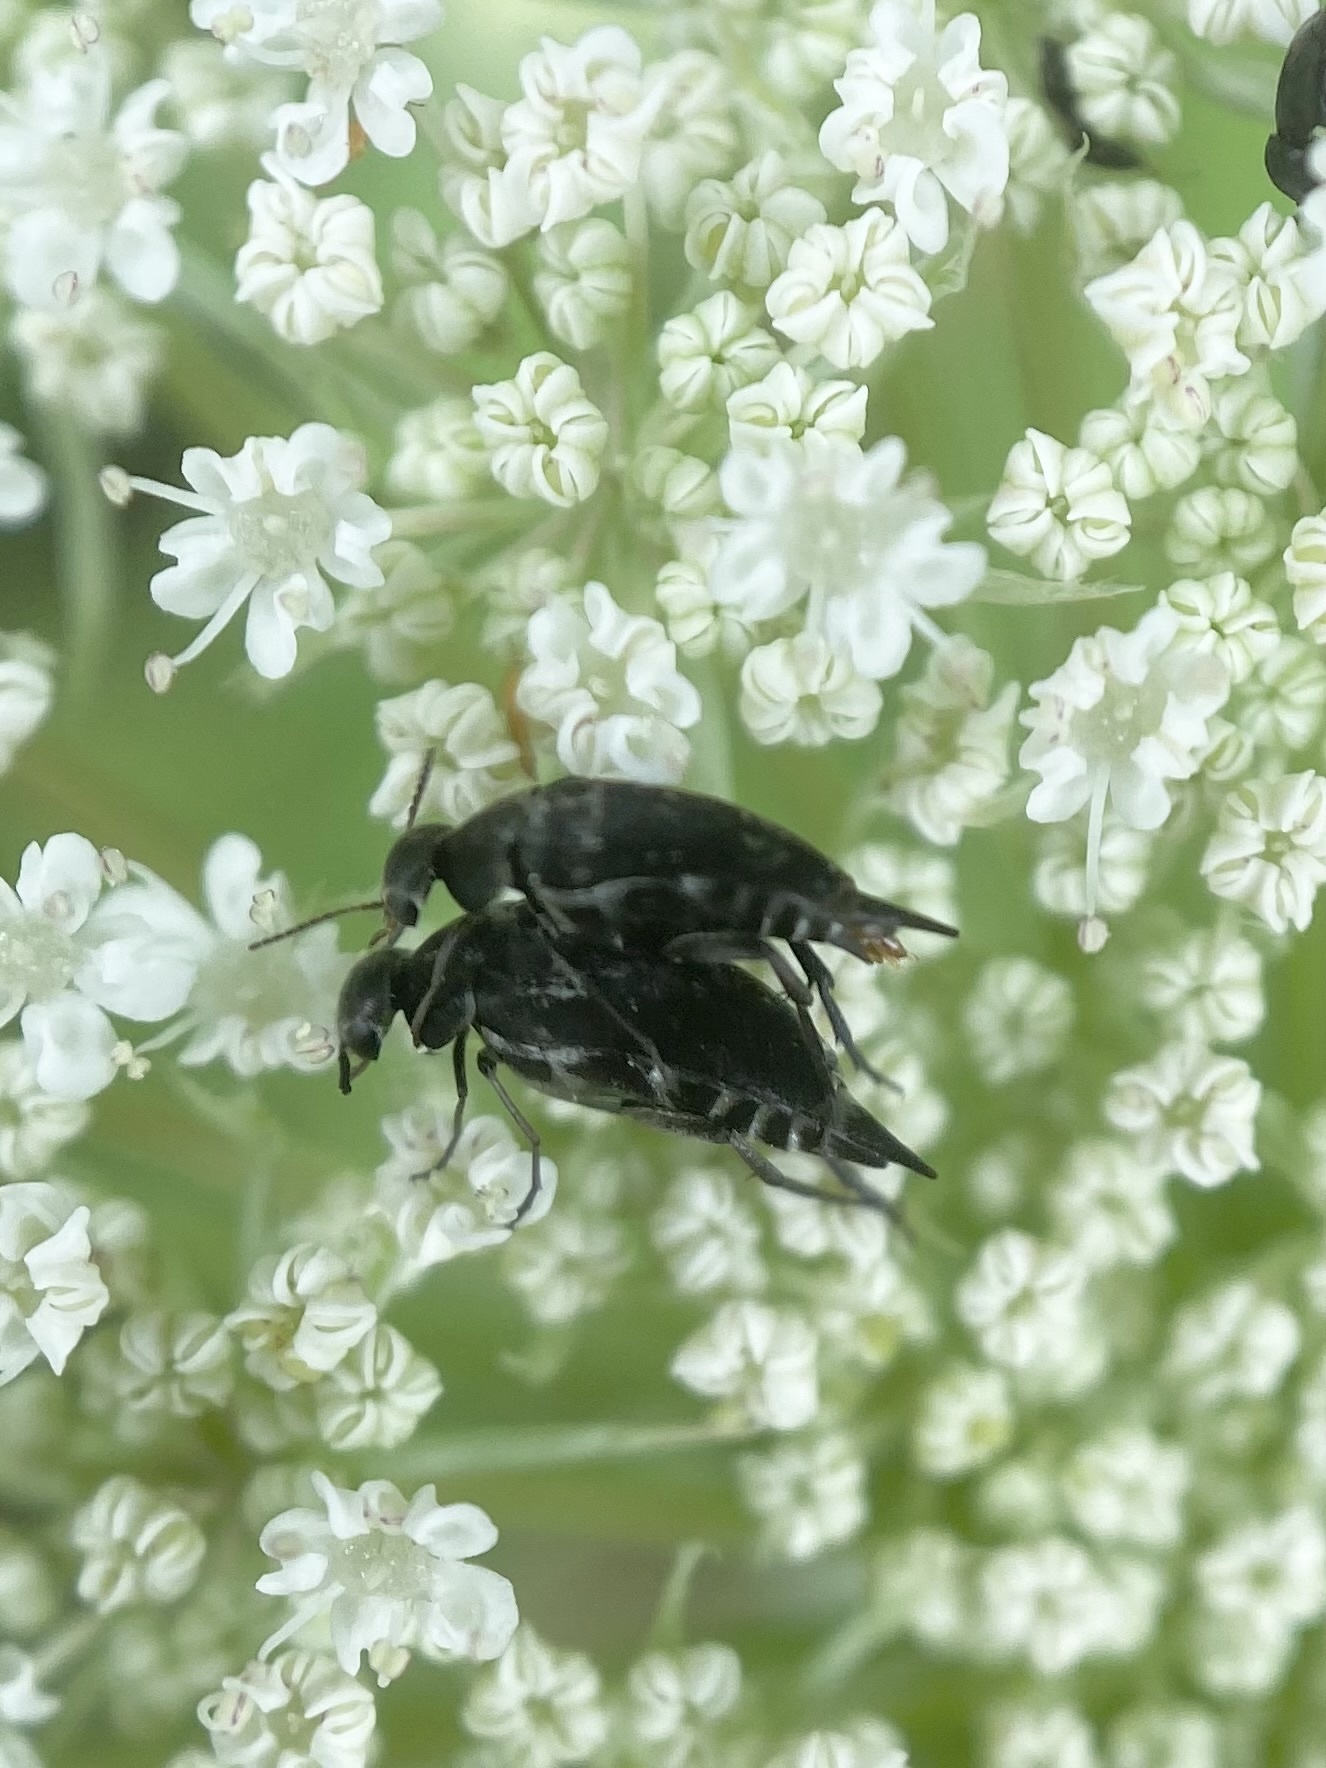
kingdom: Animalia
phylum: Arthropoda
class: Insecta
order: Coleoptera
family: Mordellidae
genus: Mordella
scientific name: Mordella marginata
